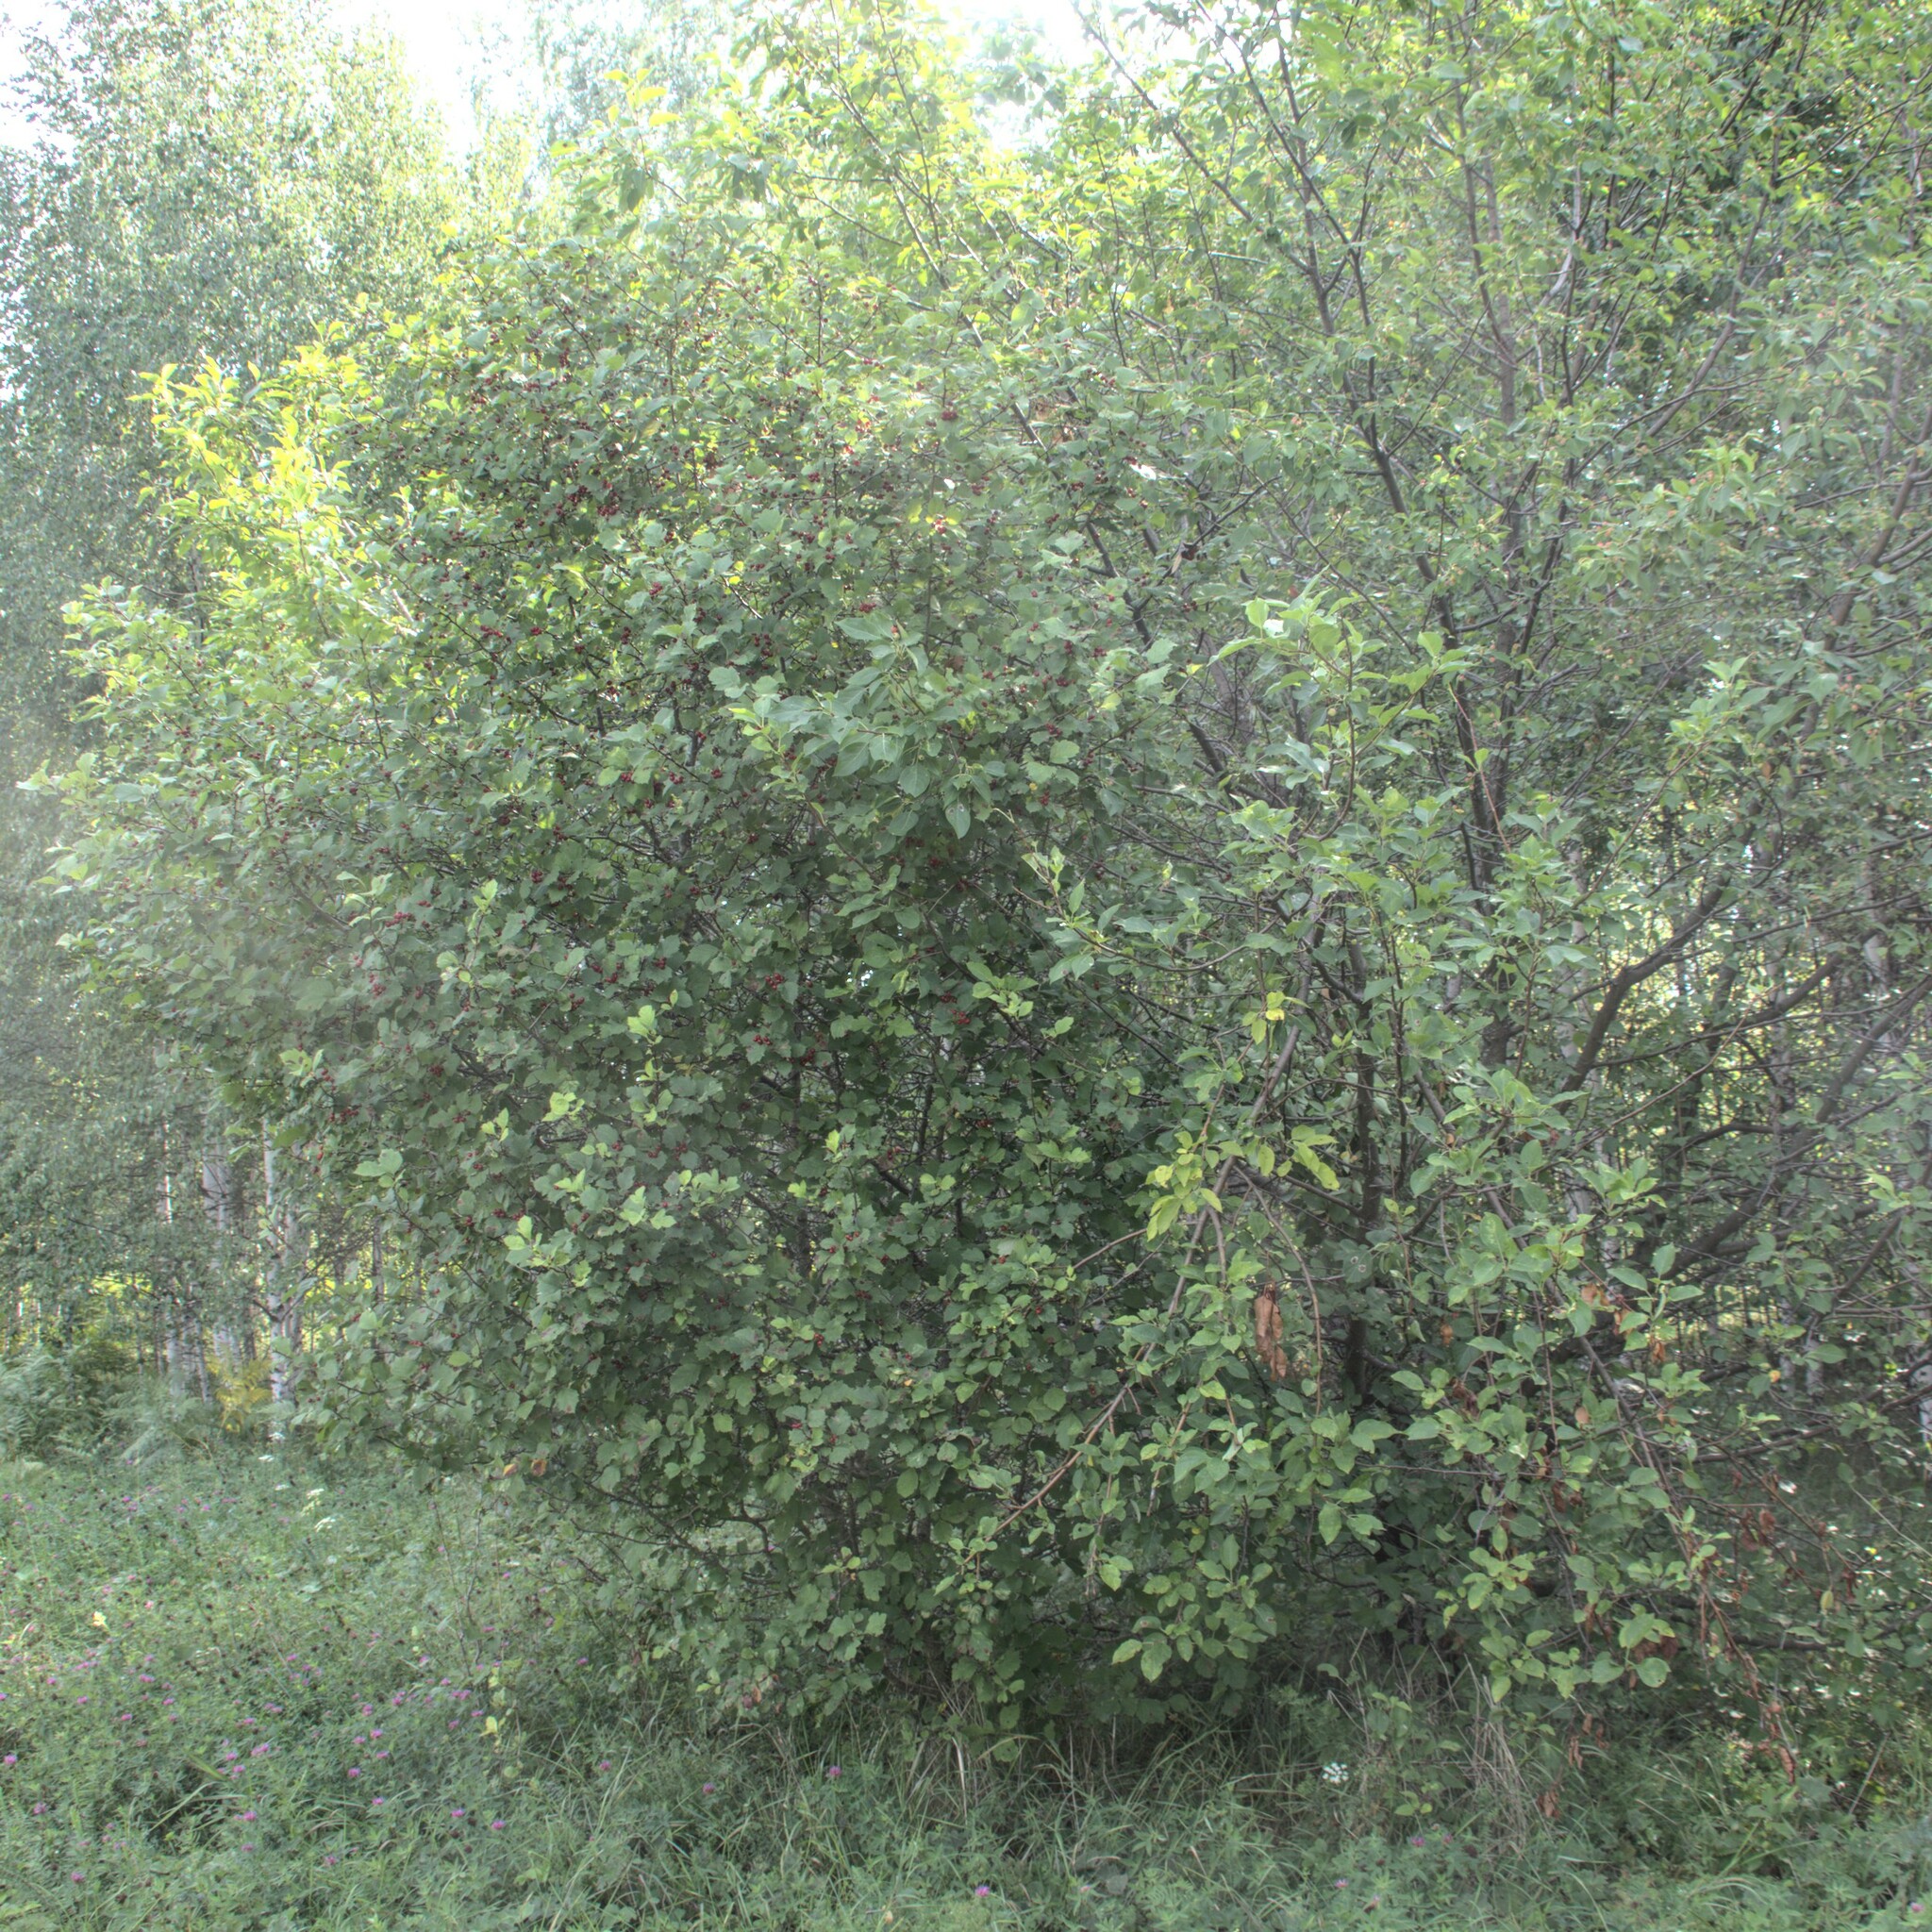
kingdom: Plantae
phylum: Tracheophyta
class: Magnoliopsida
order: Rosales
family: Rosaceae
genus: Crataegus
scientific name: Crataegus sanguinea
